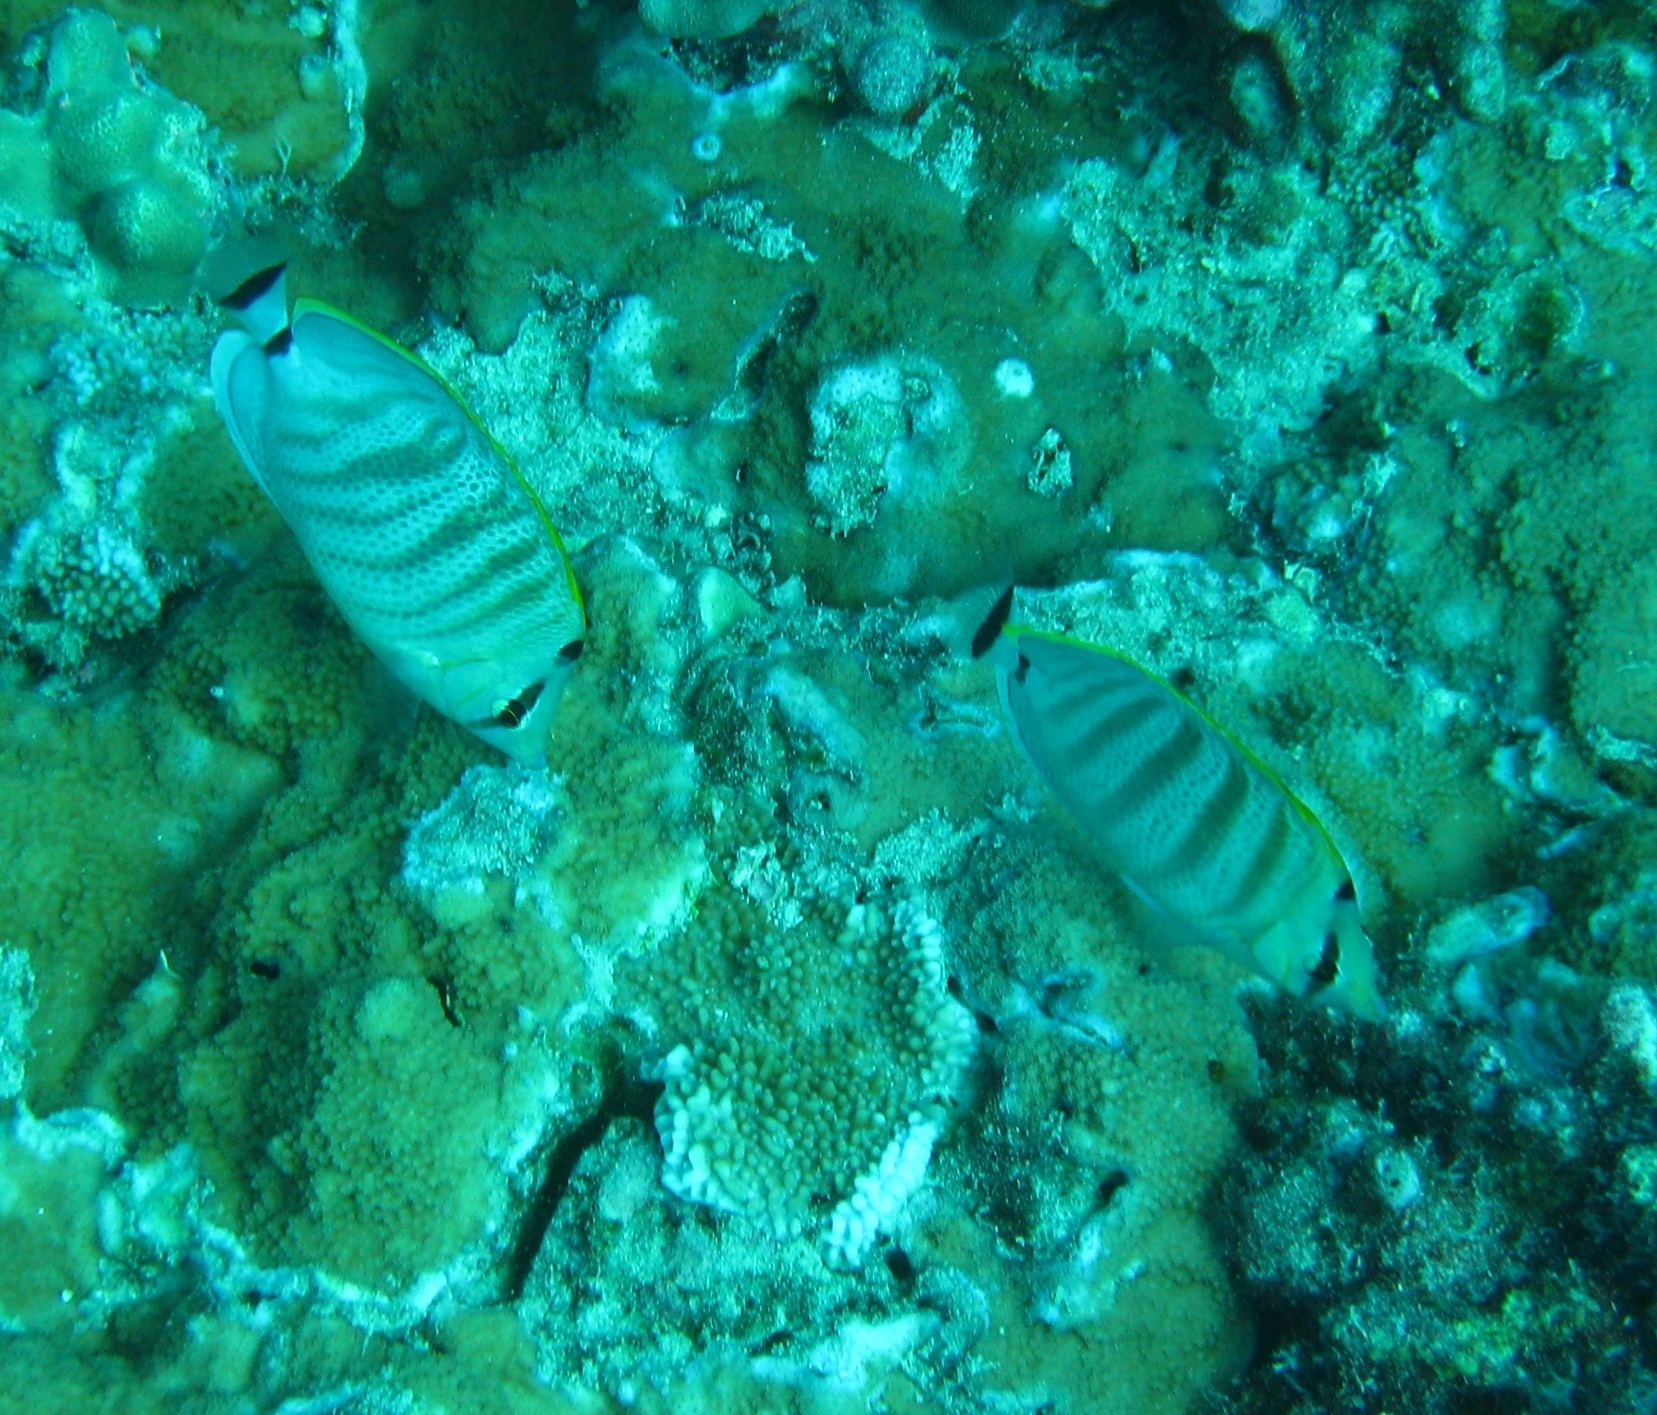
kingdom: Animalia
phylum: Chordata
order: Perciformes
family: Chaetodontidae
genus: Chaetodon
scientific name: Chaetodon multicinctus
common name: Multiband butterflyfish
